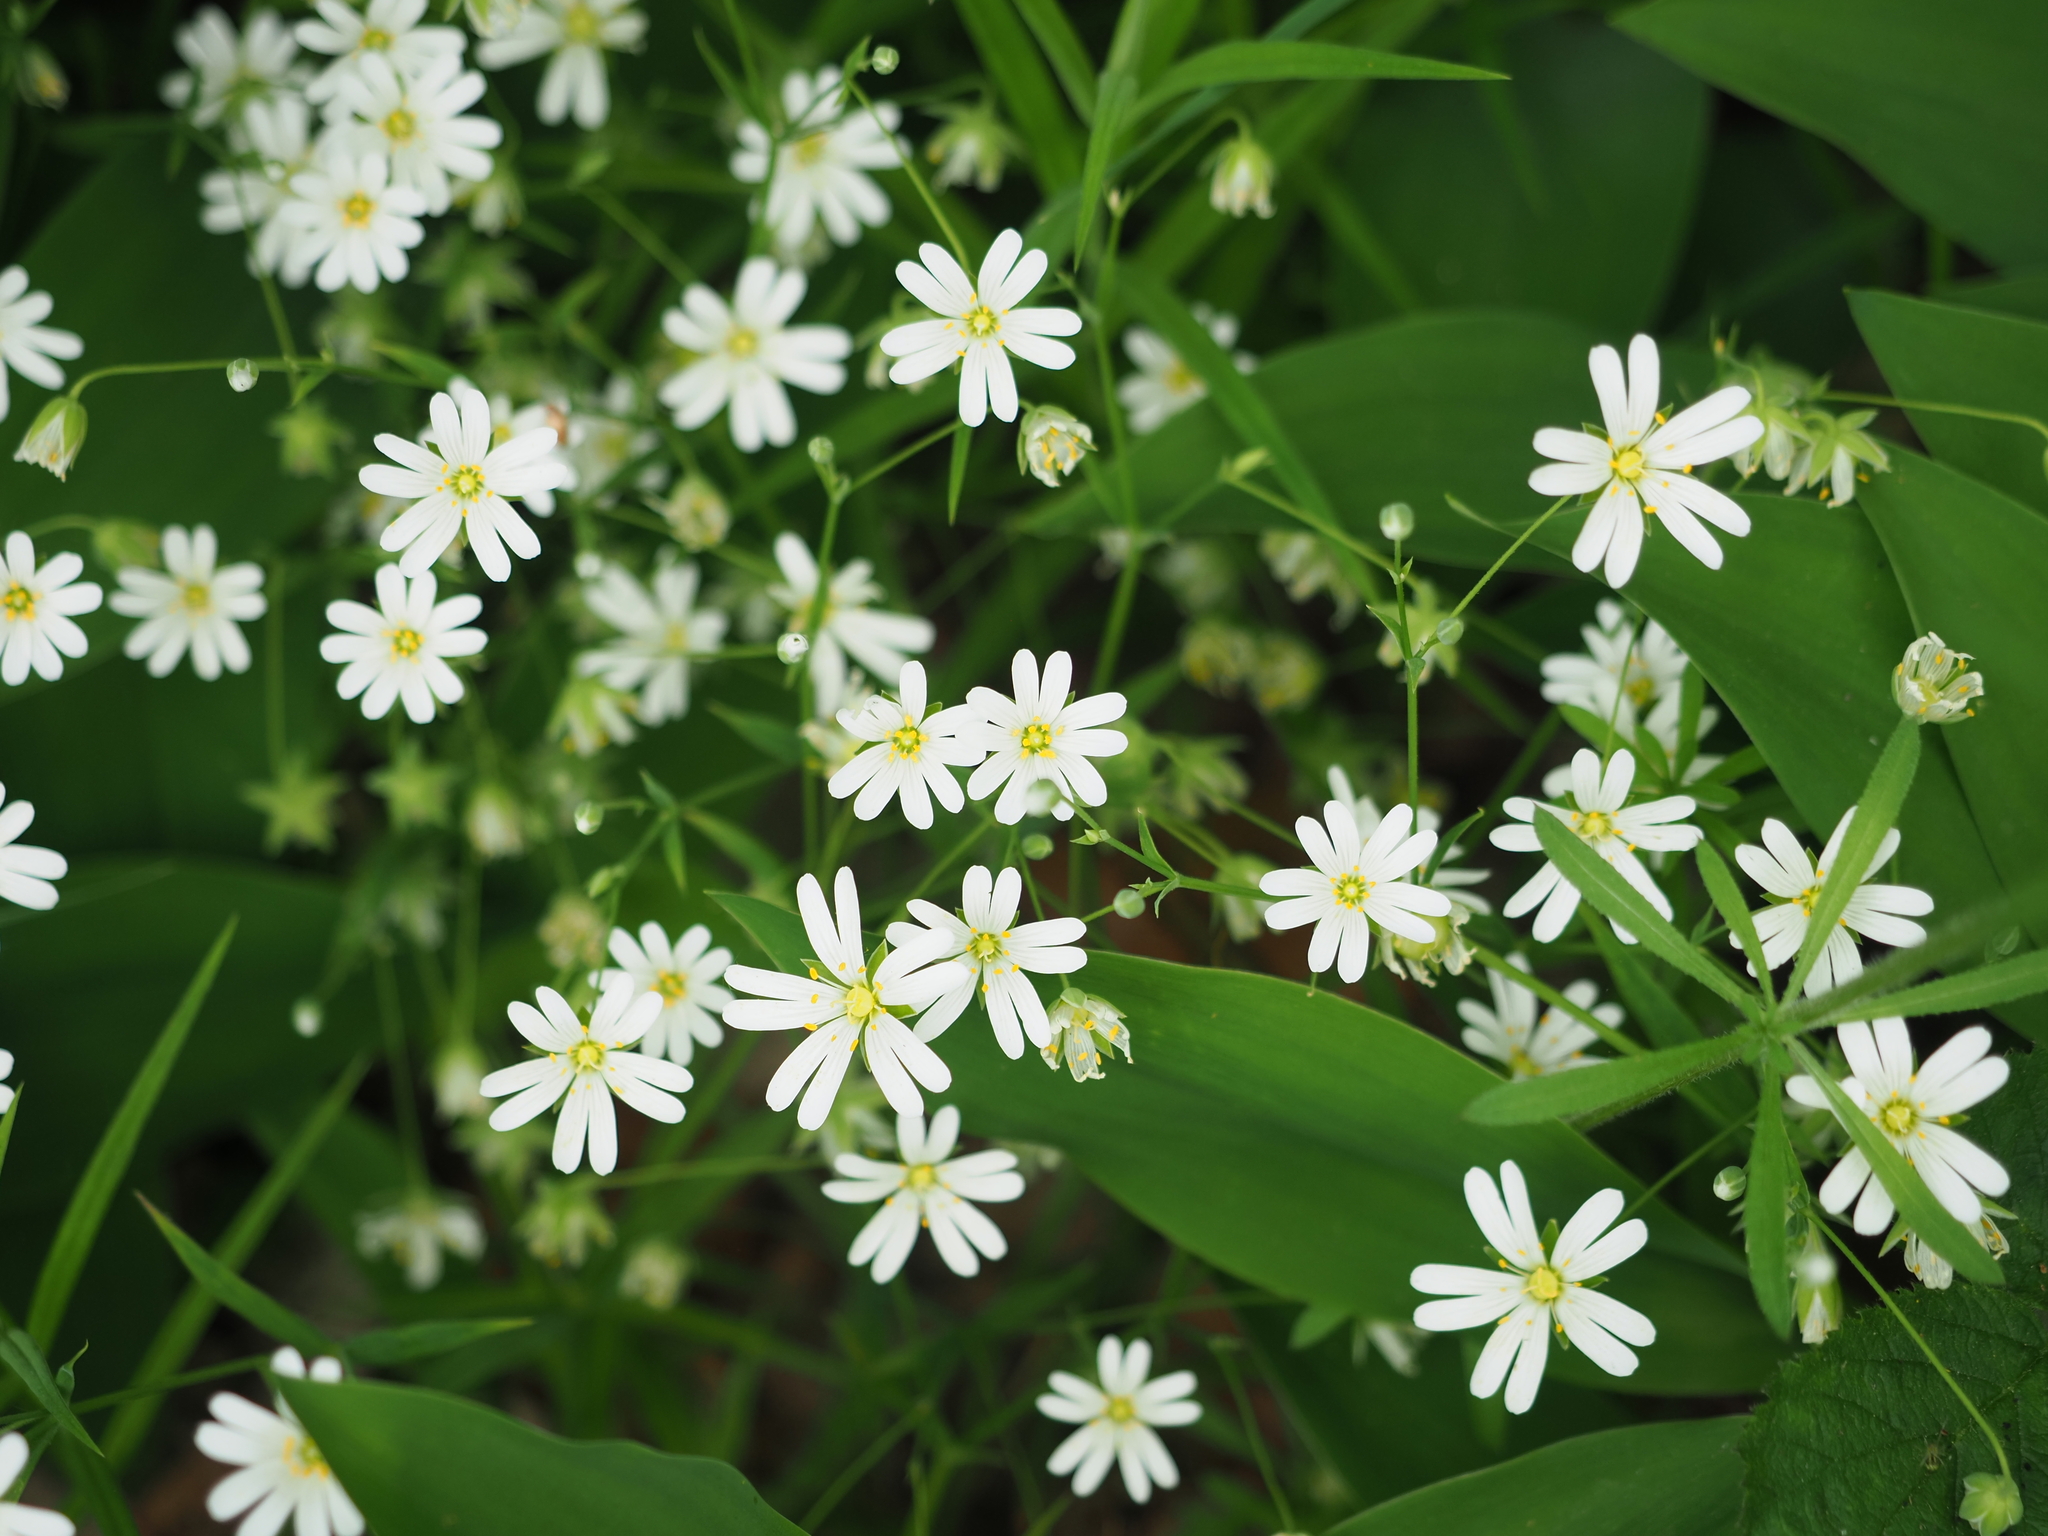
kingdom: Plantae
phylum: Tracheophyta
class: Magnoliopsida
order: Caryophyllales
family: Caryophyllaceae
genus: Rabelera
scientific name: Rabelera holostea
